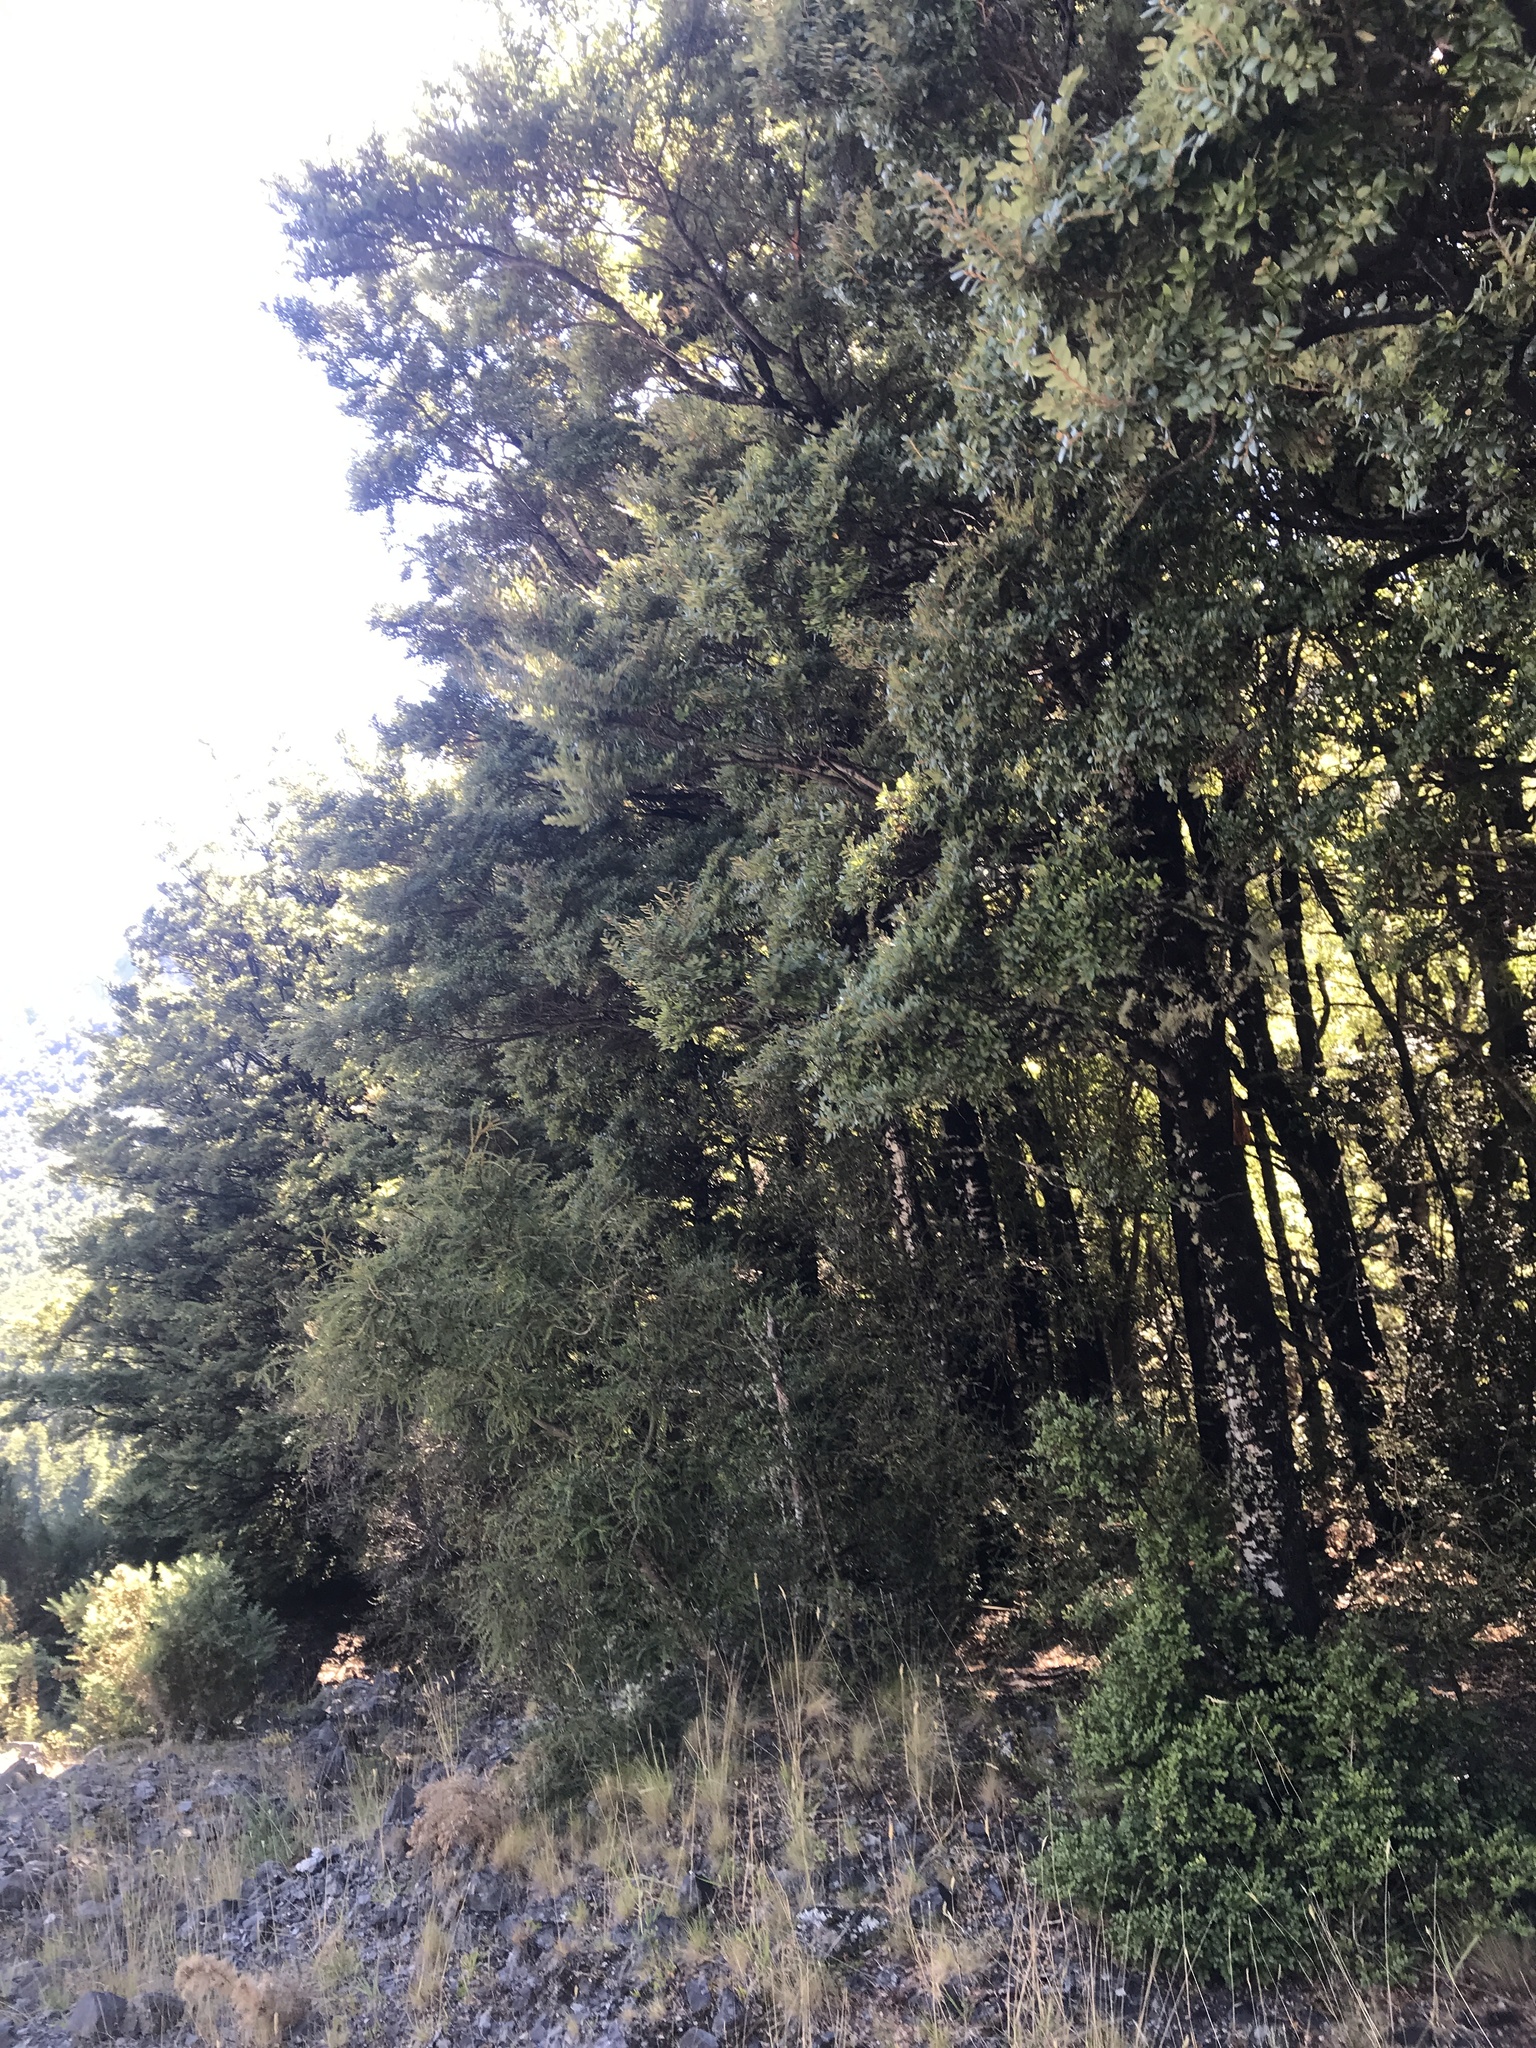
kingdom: Plantae
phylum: Tracheophyta
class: Magnoliopsida
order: Fagales
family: Nothofagaceae
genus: Nothofagus
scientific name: Nothofagus cliffortioides
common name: Mountain beech
